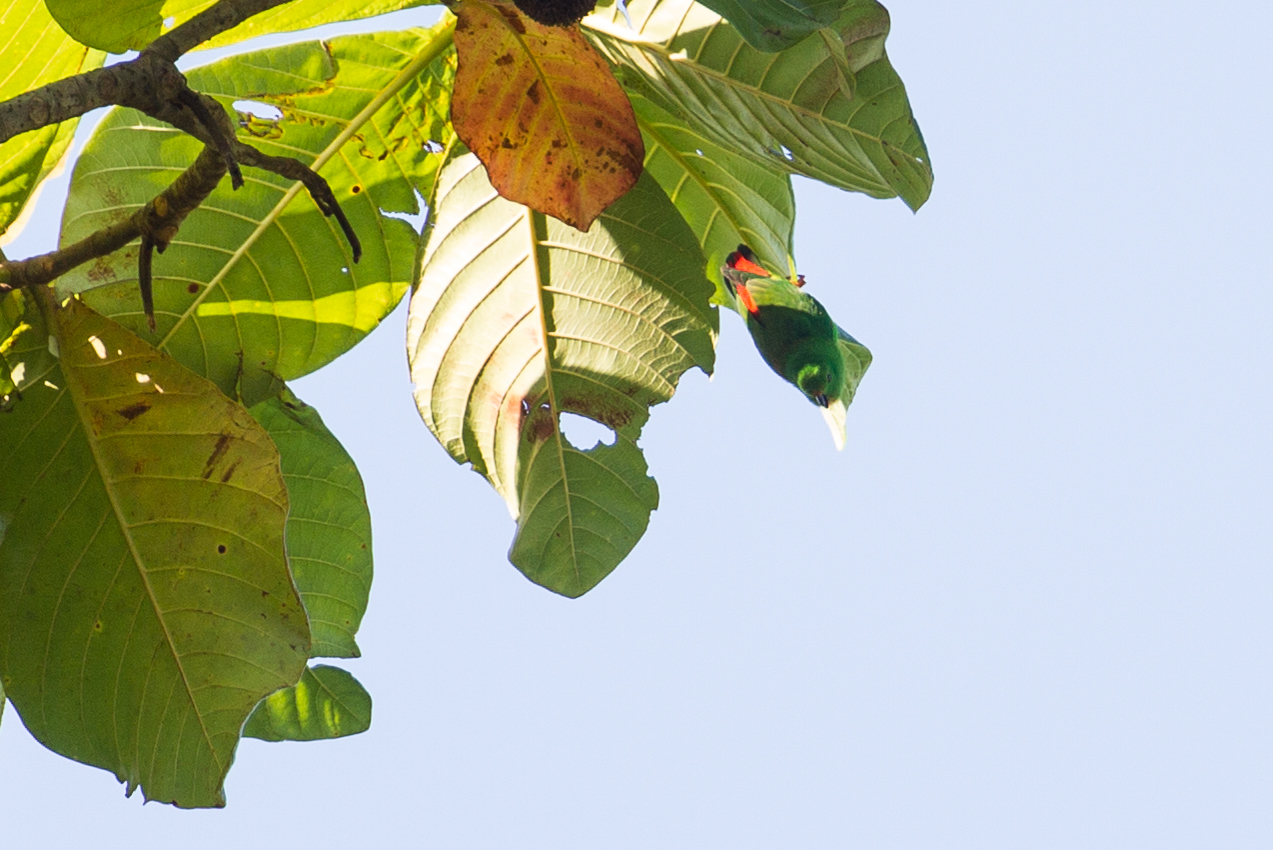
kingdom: Animalia
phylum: Chordata
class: Aves
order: Psittaciformes
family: Psittacidae
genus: Loriculus
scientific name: Loriculus amabilis
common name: Moluccan hanging parrot
